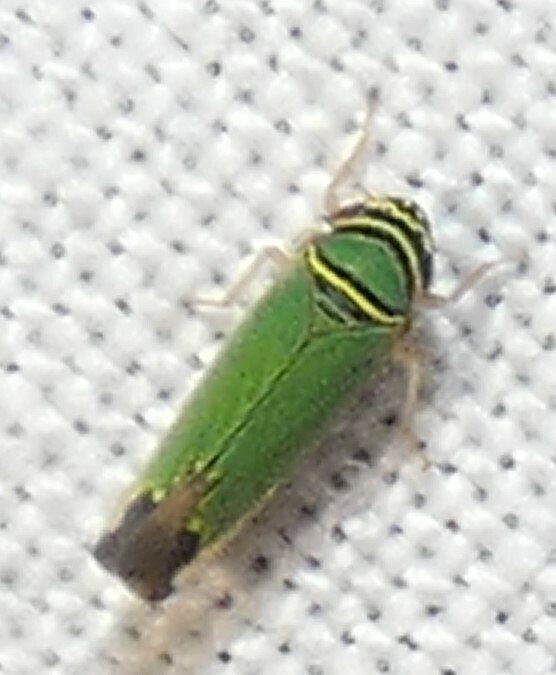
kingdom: Animalia
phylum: Arthropoda
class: Insecta
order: Hemiptera
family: Cicadellidae
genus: Tylozygus
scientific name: Tylozygus geometricus
